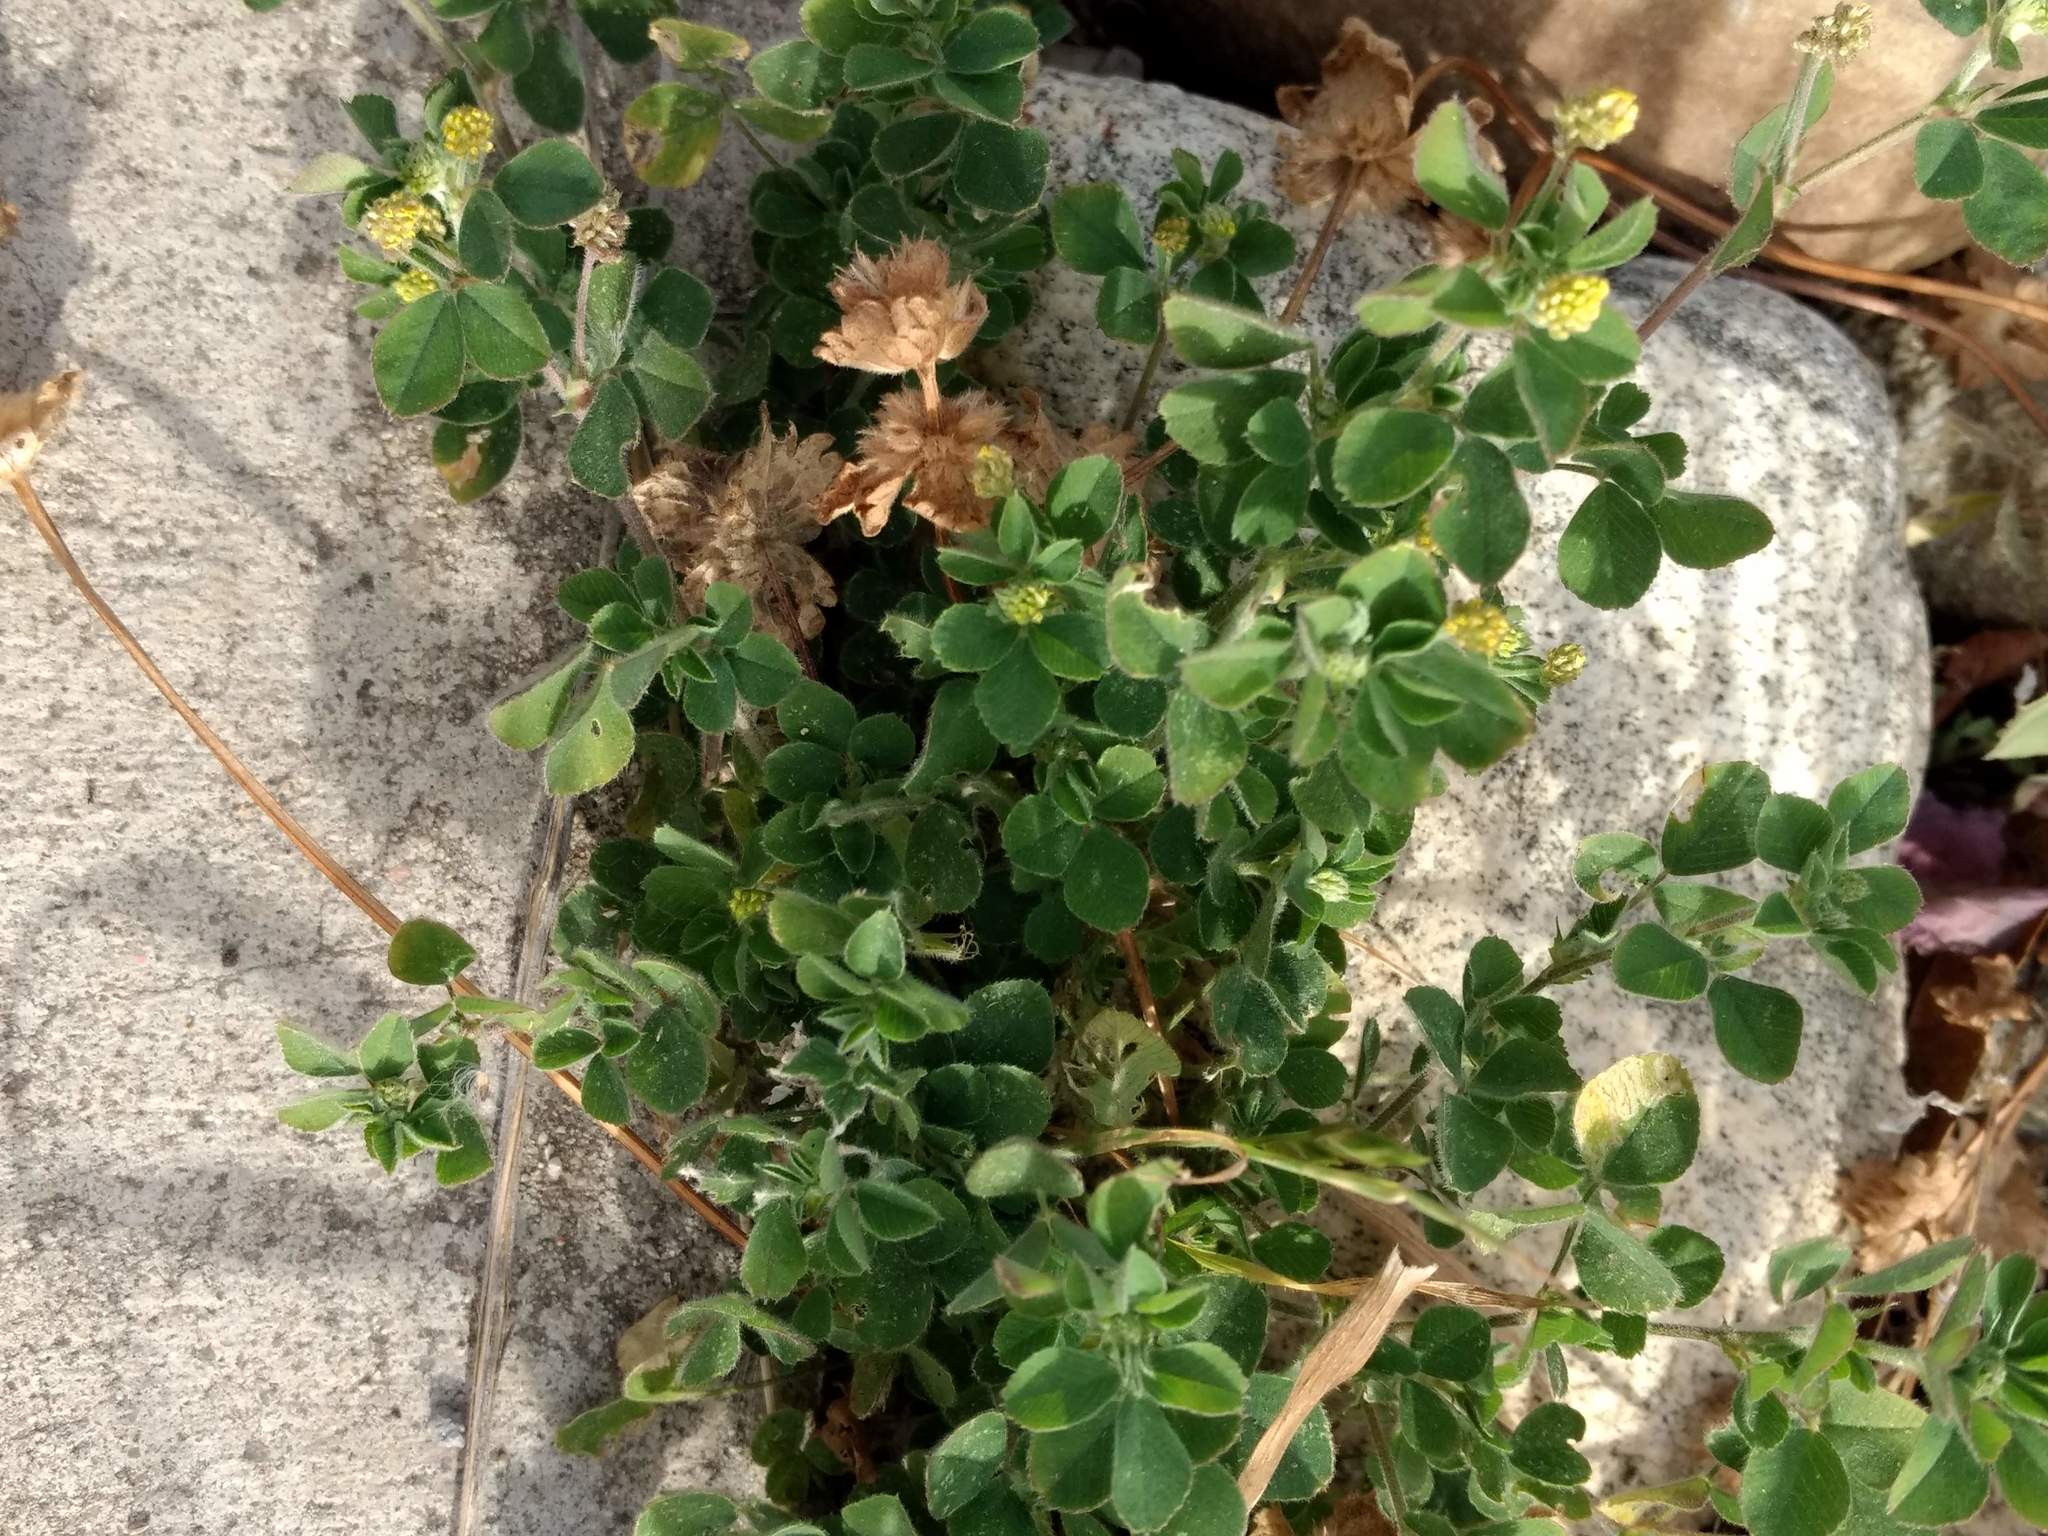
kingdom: Plantae
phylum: Tracheophyta
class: Magnoliopsida
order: Fabales
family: Fabaceae
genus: Medicago
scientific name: Medicago lupulina
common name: Black medick
